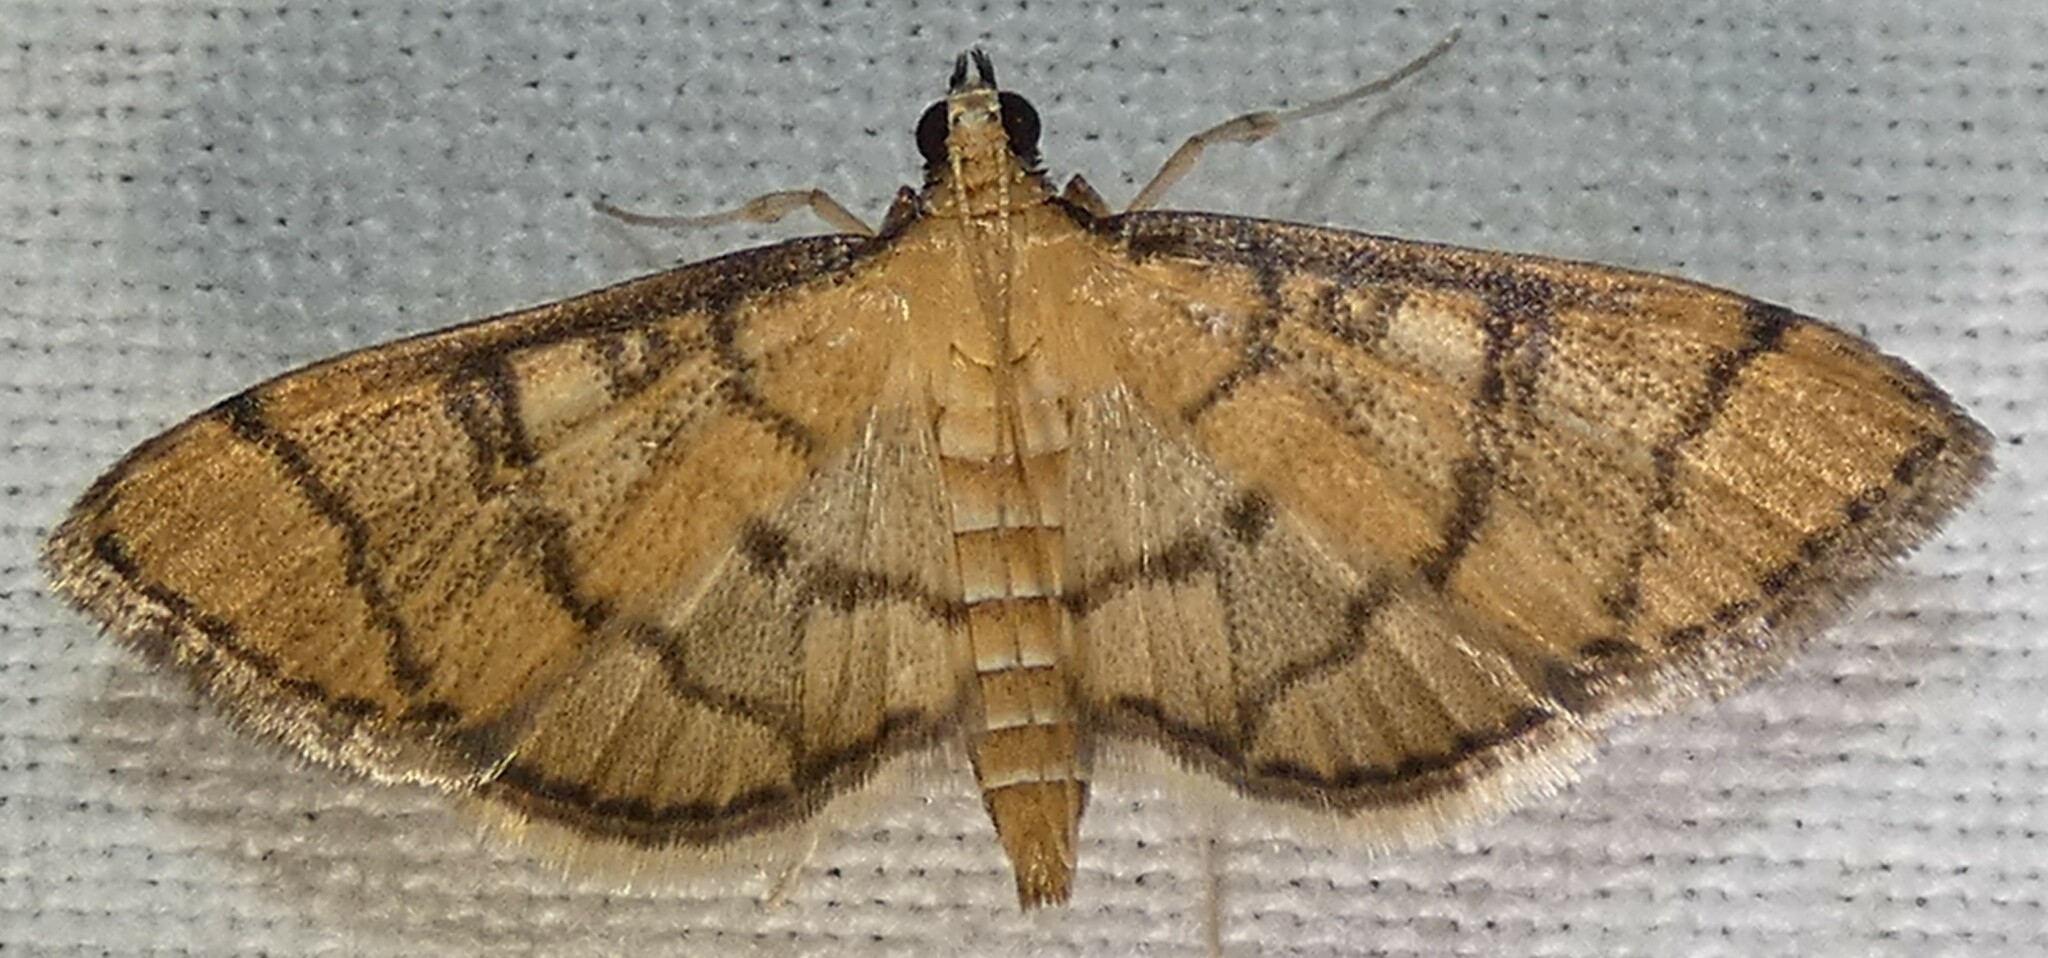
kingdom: Animalia
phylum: Arthropoda
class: Insecta
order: Lepidoptera
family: Crambidae
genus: Lamprosema
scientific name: Lamprosema Blepharomastix ranalis
